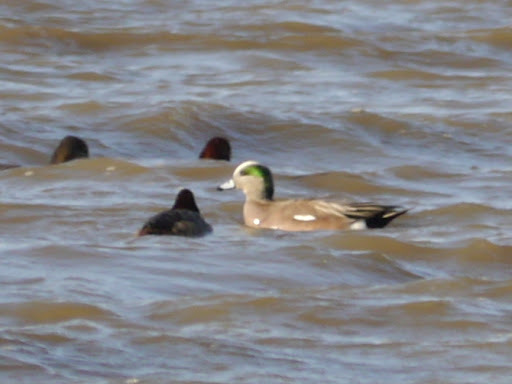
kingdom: Animalia
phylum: Chordata
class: Aves
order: Anseriformes
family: Anatidae
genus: Mareca
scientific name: Mareca americana
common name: American wigeon
